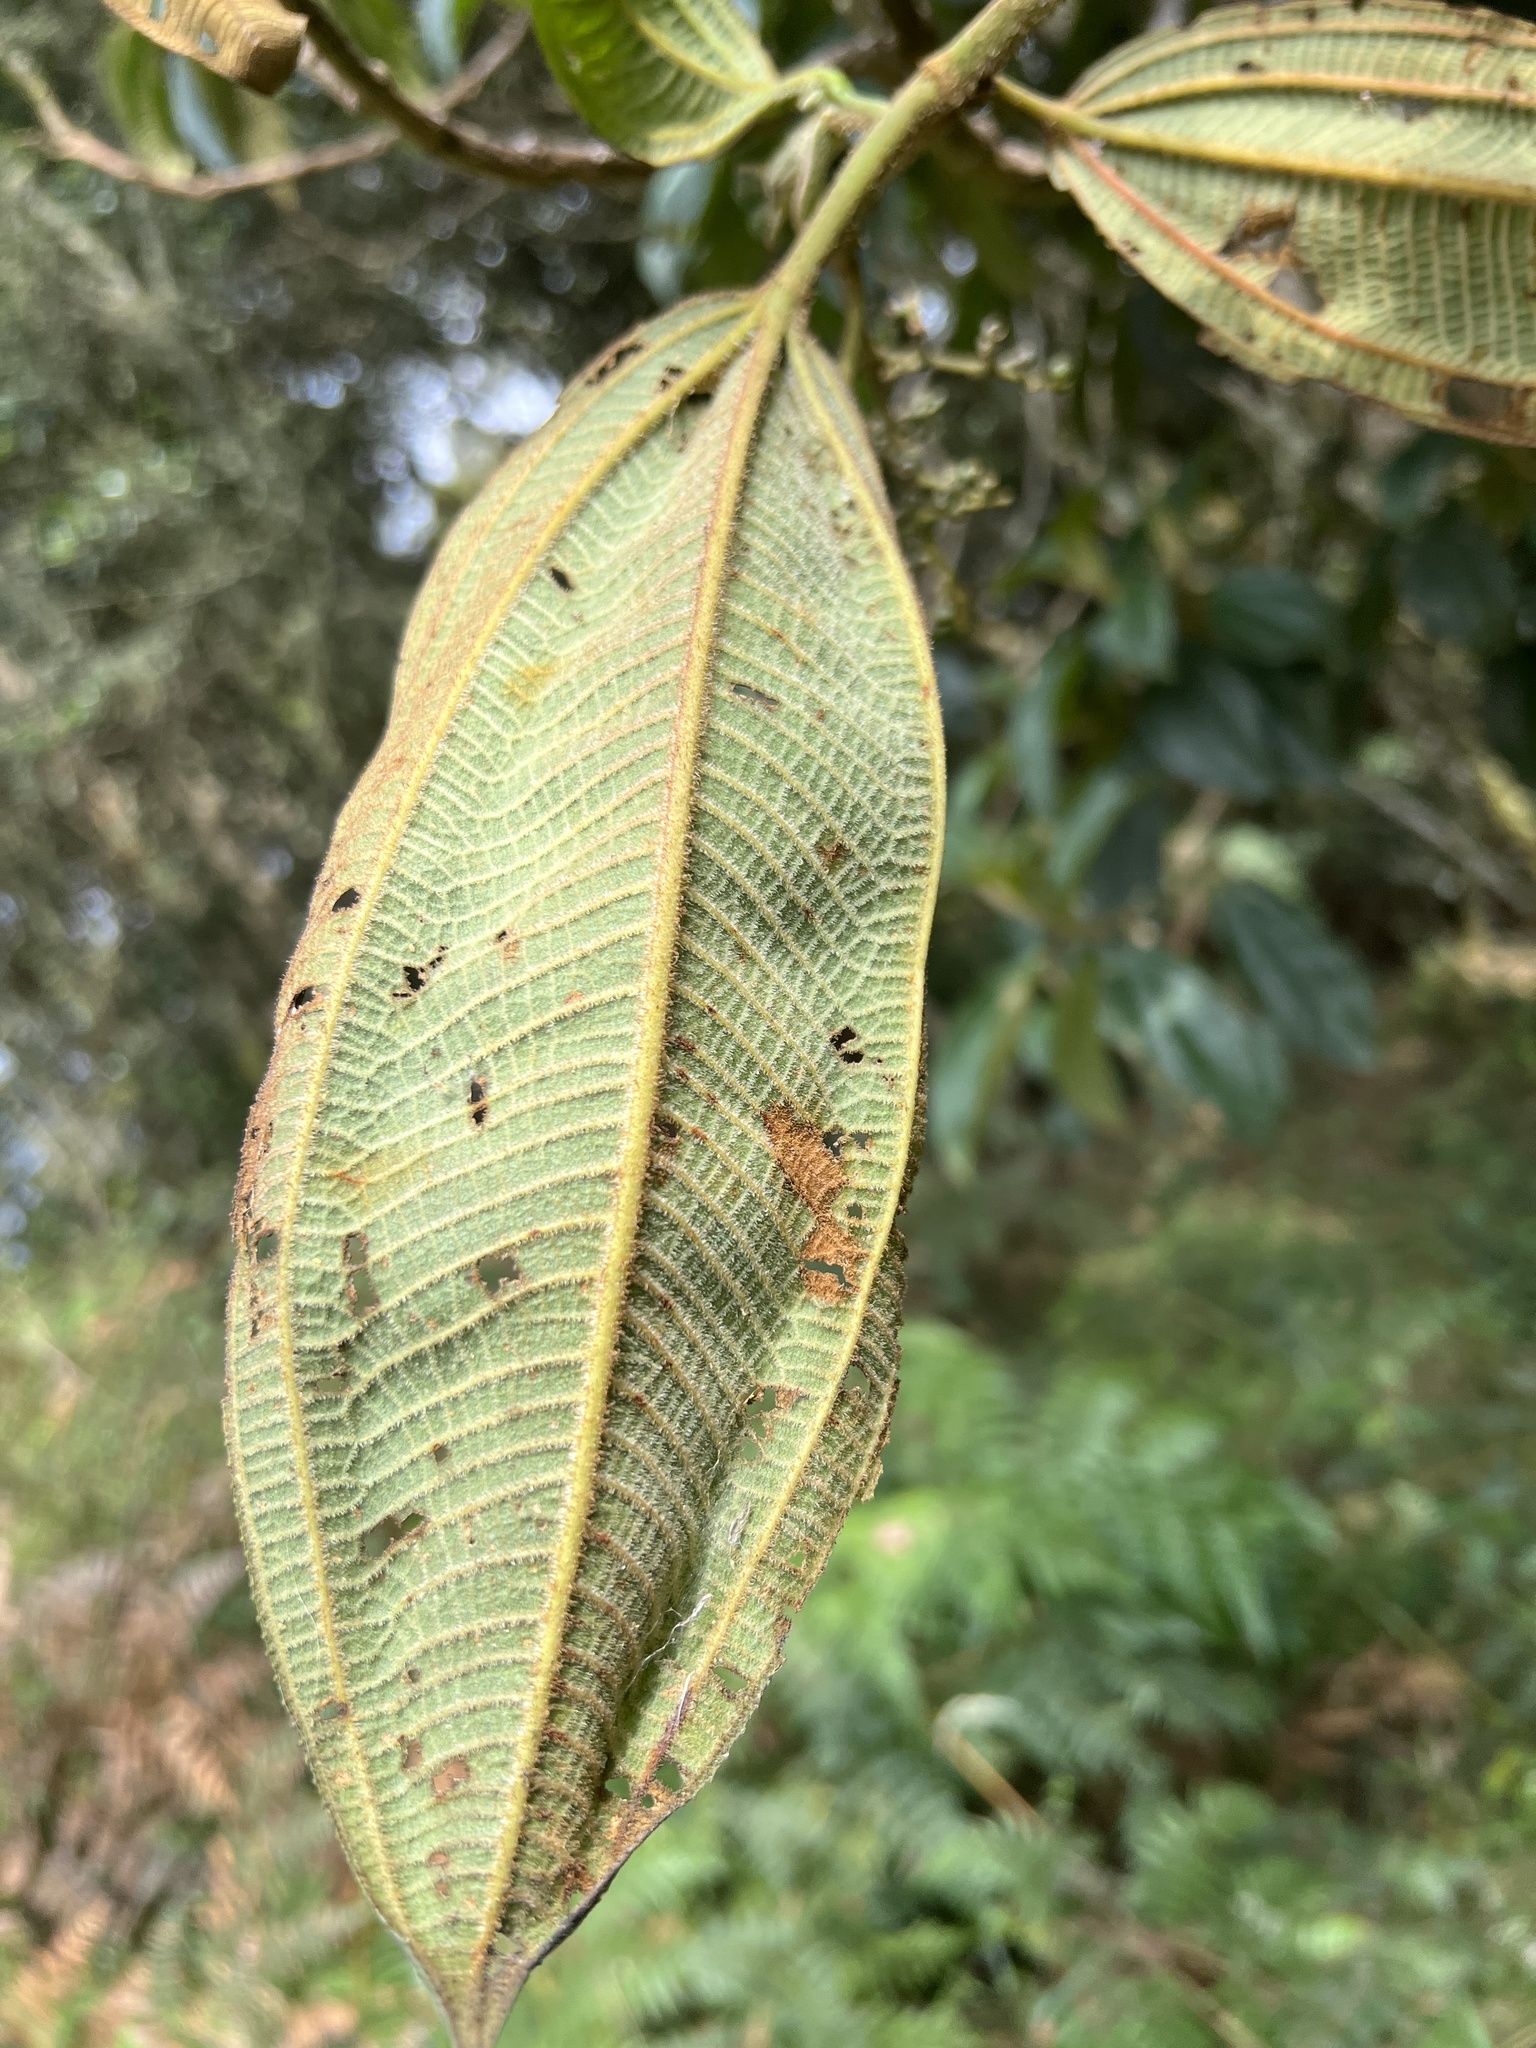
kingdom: Plantae
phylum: Tracheophyta
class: Magnoliopsida
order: Myrtales
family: Melastomataceae
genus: Miconia
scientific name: Miconia plethorica
